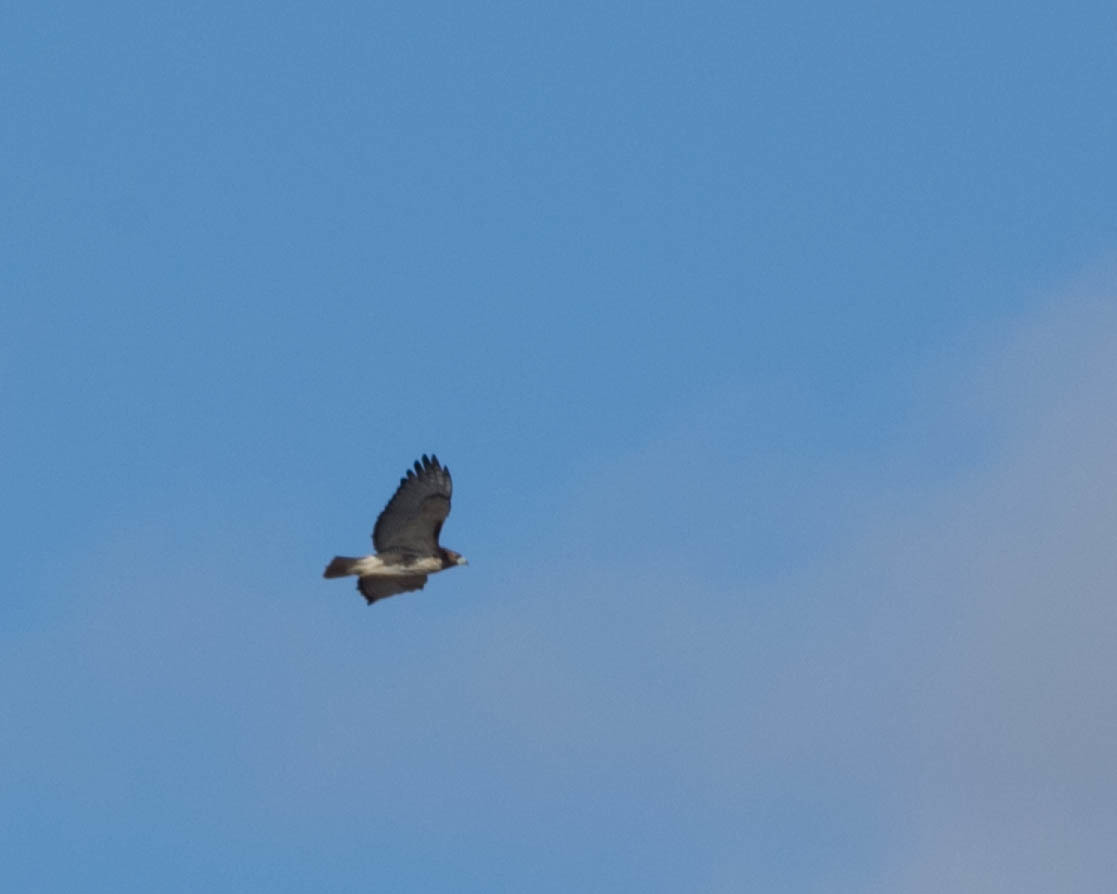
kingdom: Animalia
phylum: Chordata
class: Aves
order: Accipitriformes
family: Accipitridae
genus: Buteo
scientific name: Buteo jamaicensis
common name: Red-tailed hawk
